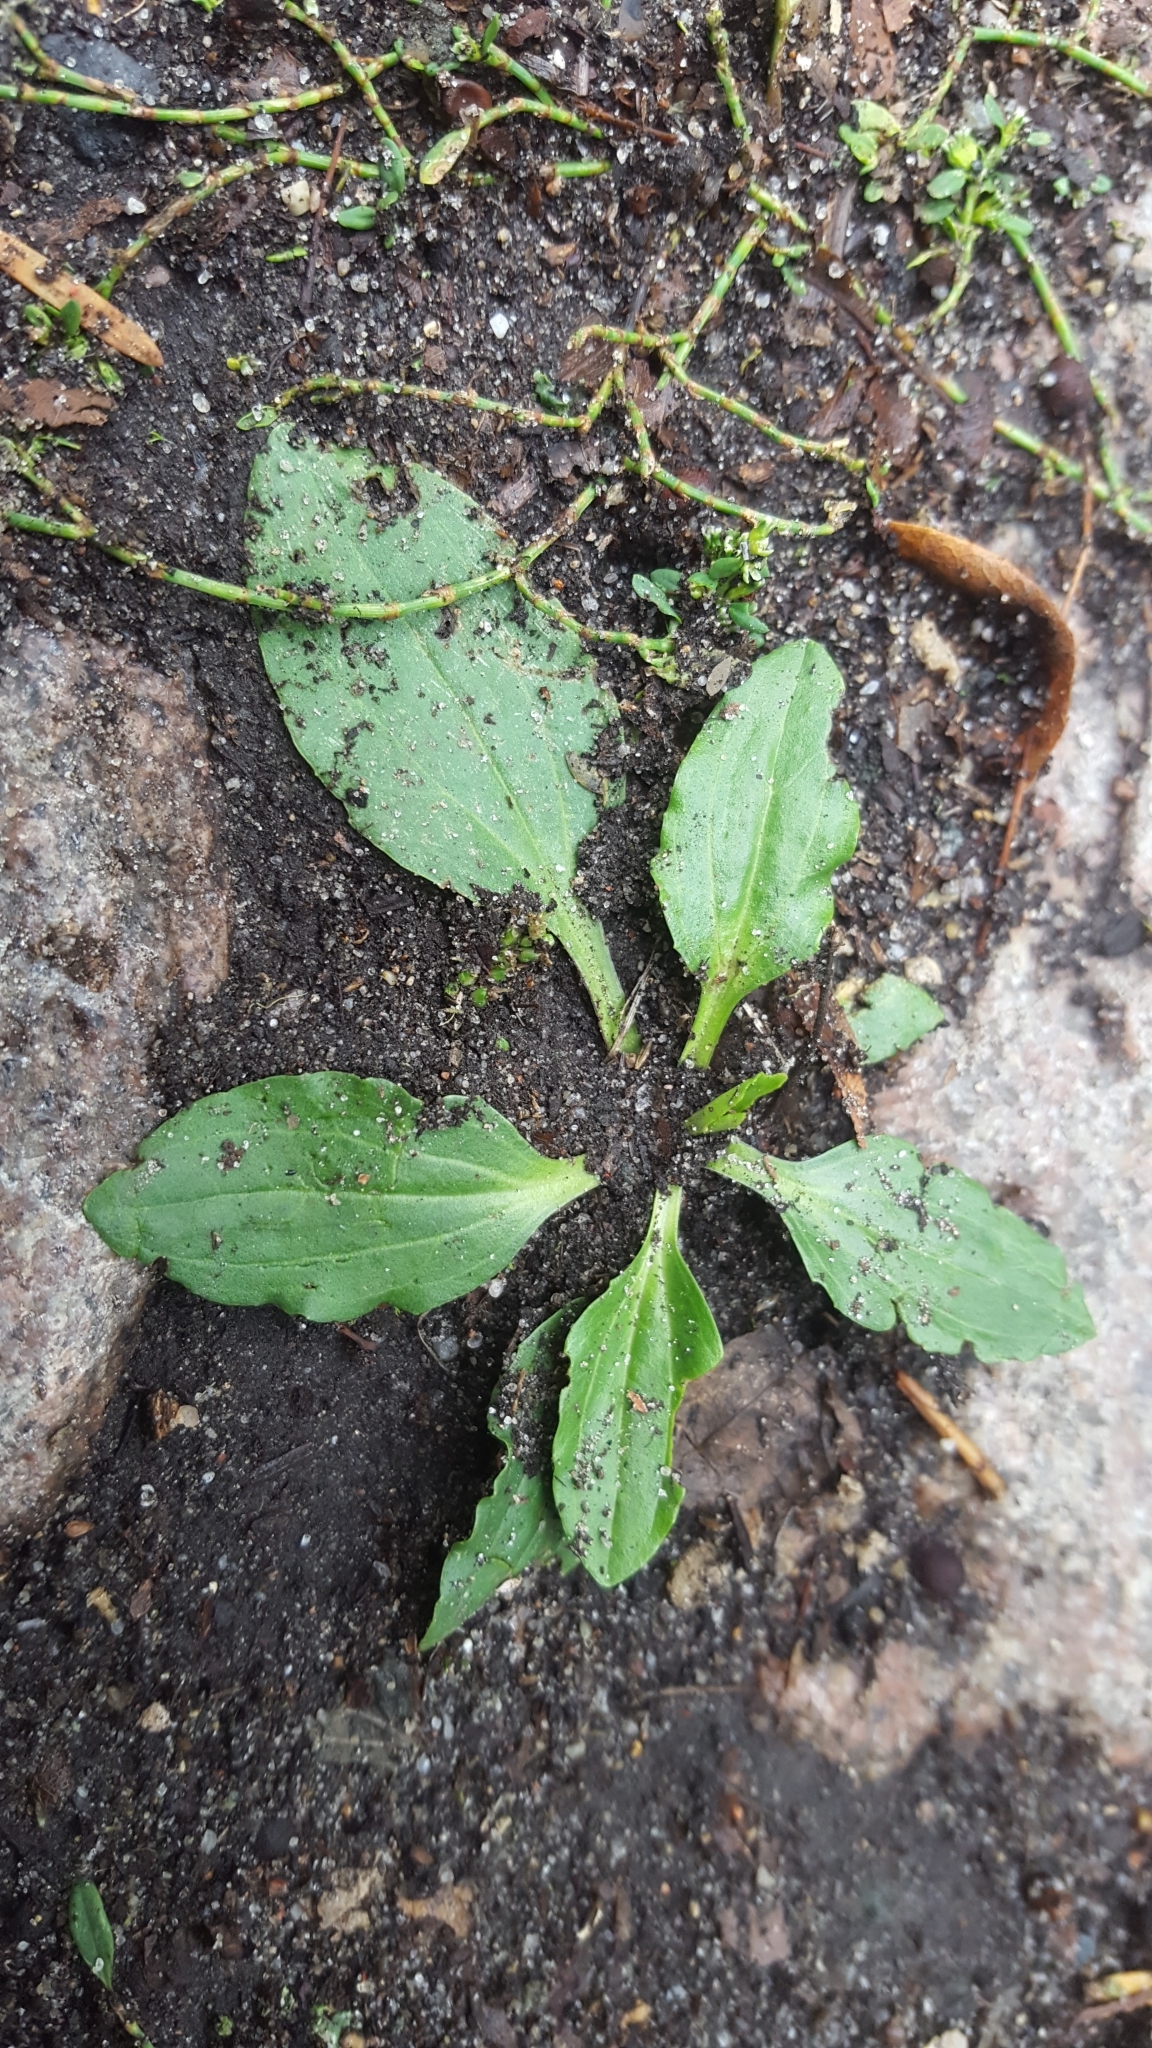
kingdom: Plantae
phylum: Tracheophyta
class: Magnoliopsida
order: Lamiales
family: Plantaginaceae
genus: Plantago
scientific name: Plantago major
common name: Common plantain
